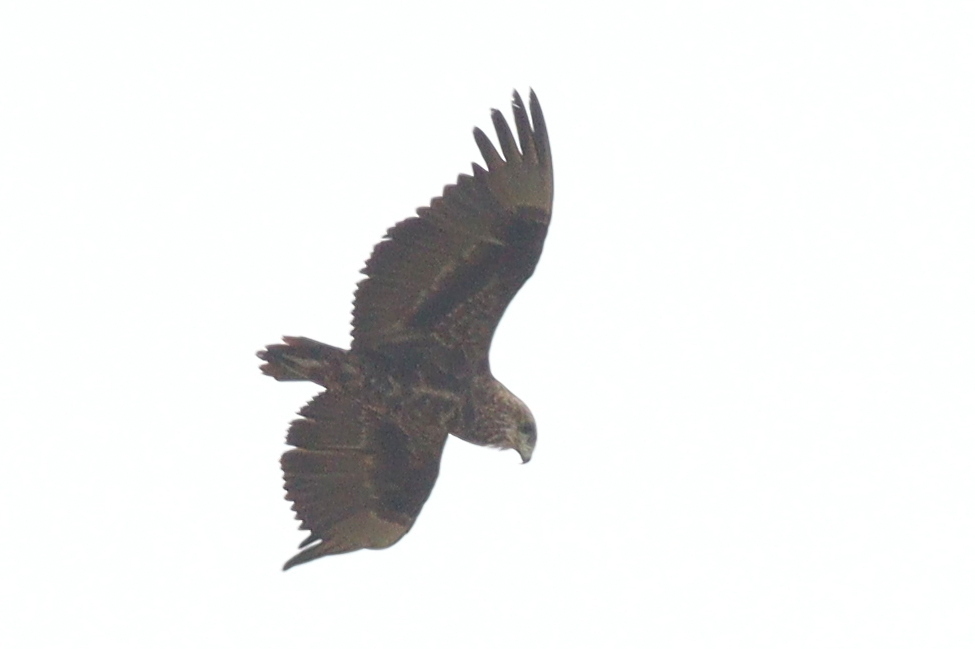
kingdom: Animalia
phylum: Chordata
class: Aves
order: Accipitriformes
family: Accipitridae
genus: Terathopius
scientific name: Terathopius ecaudatus
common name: Bateleur
